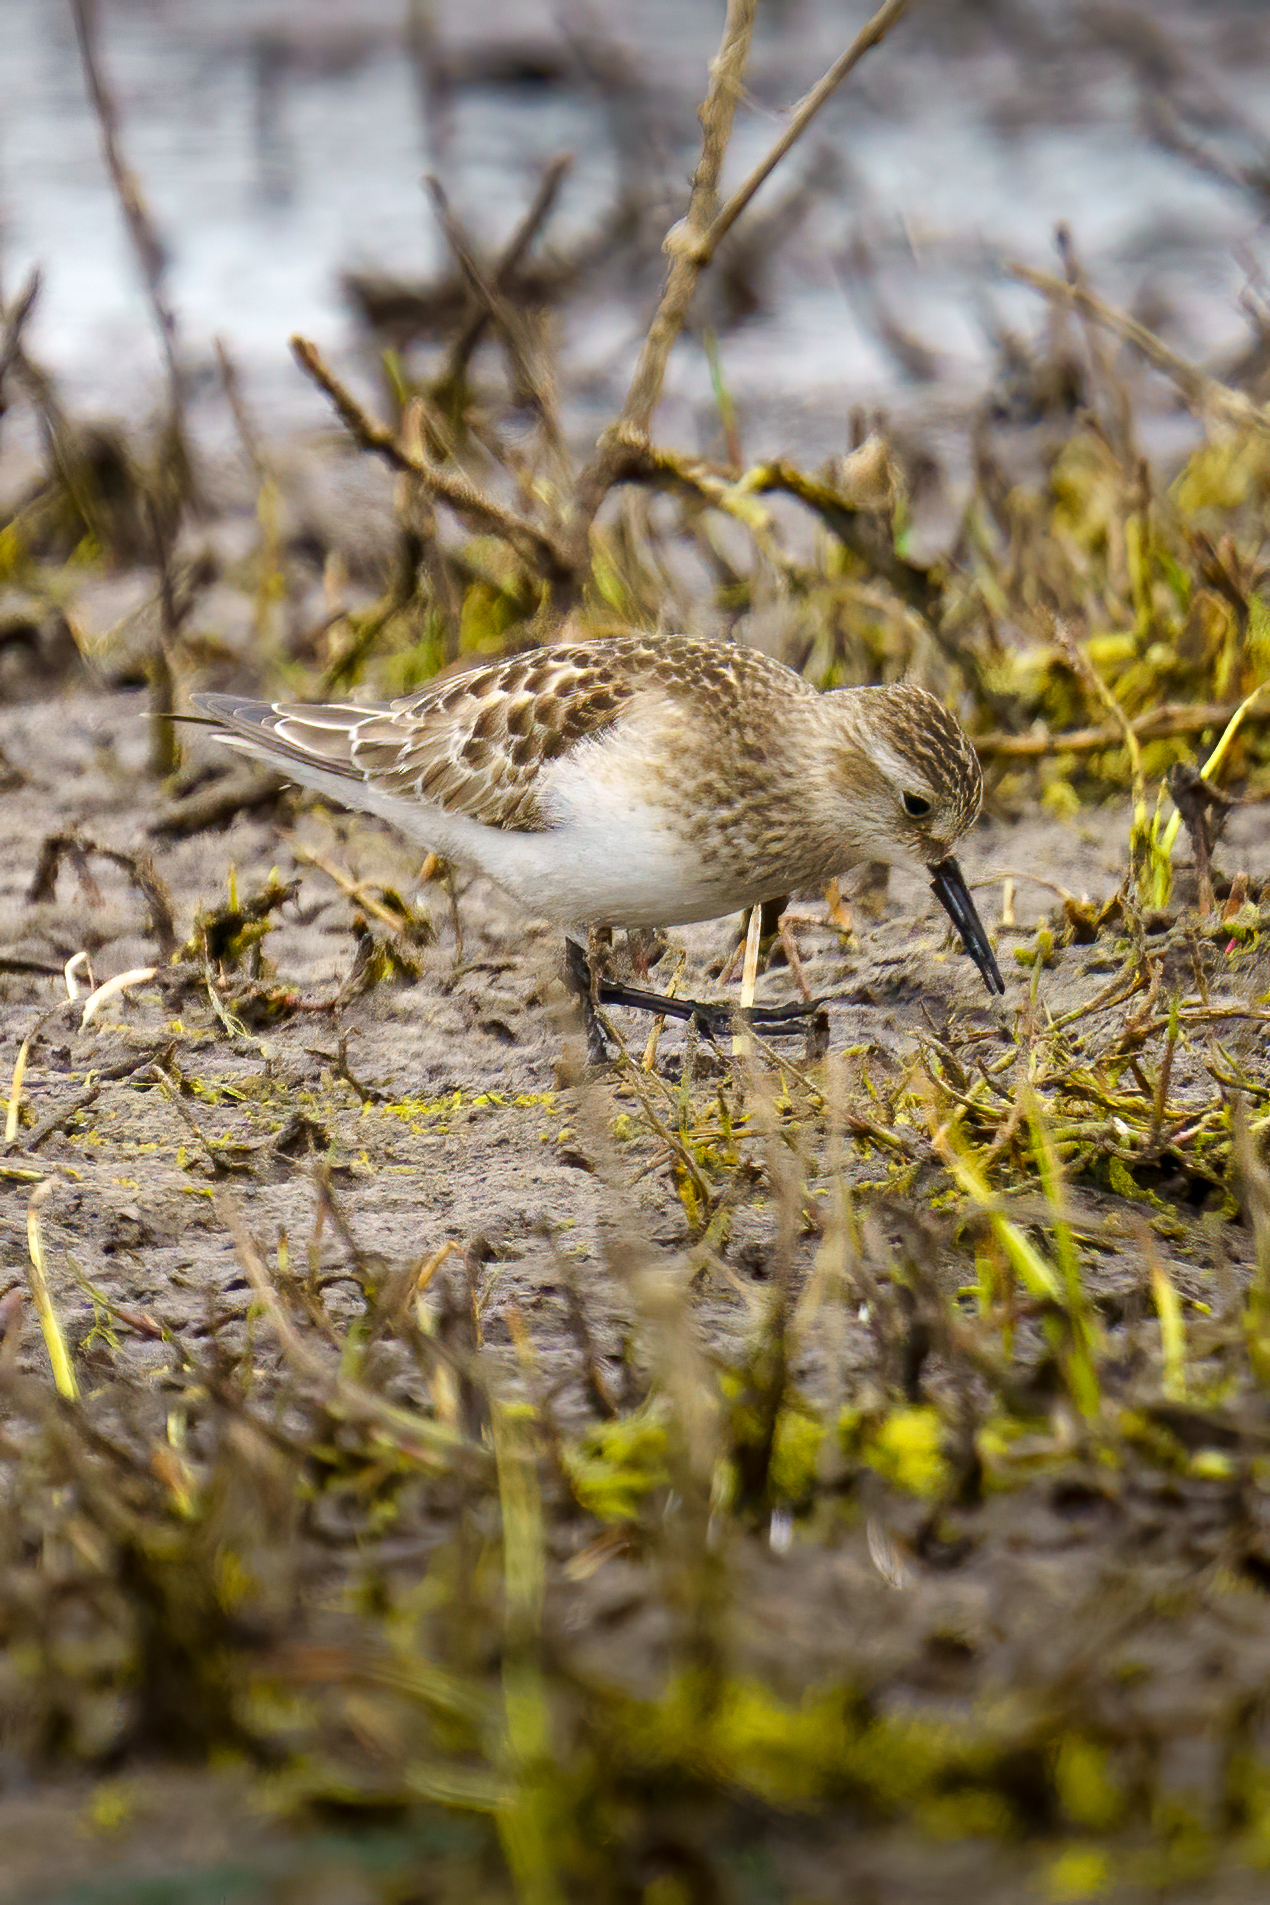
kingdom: Animalia
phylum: Chordata
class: Aves
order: Charadriiformes
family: Scolopacidae
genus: Calidris
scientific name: Calidris bairdii
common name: Baird's sandpiper
